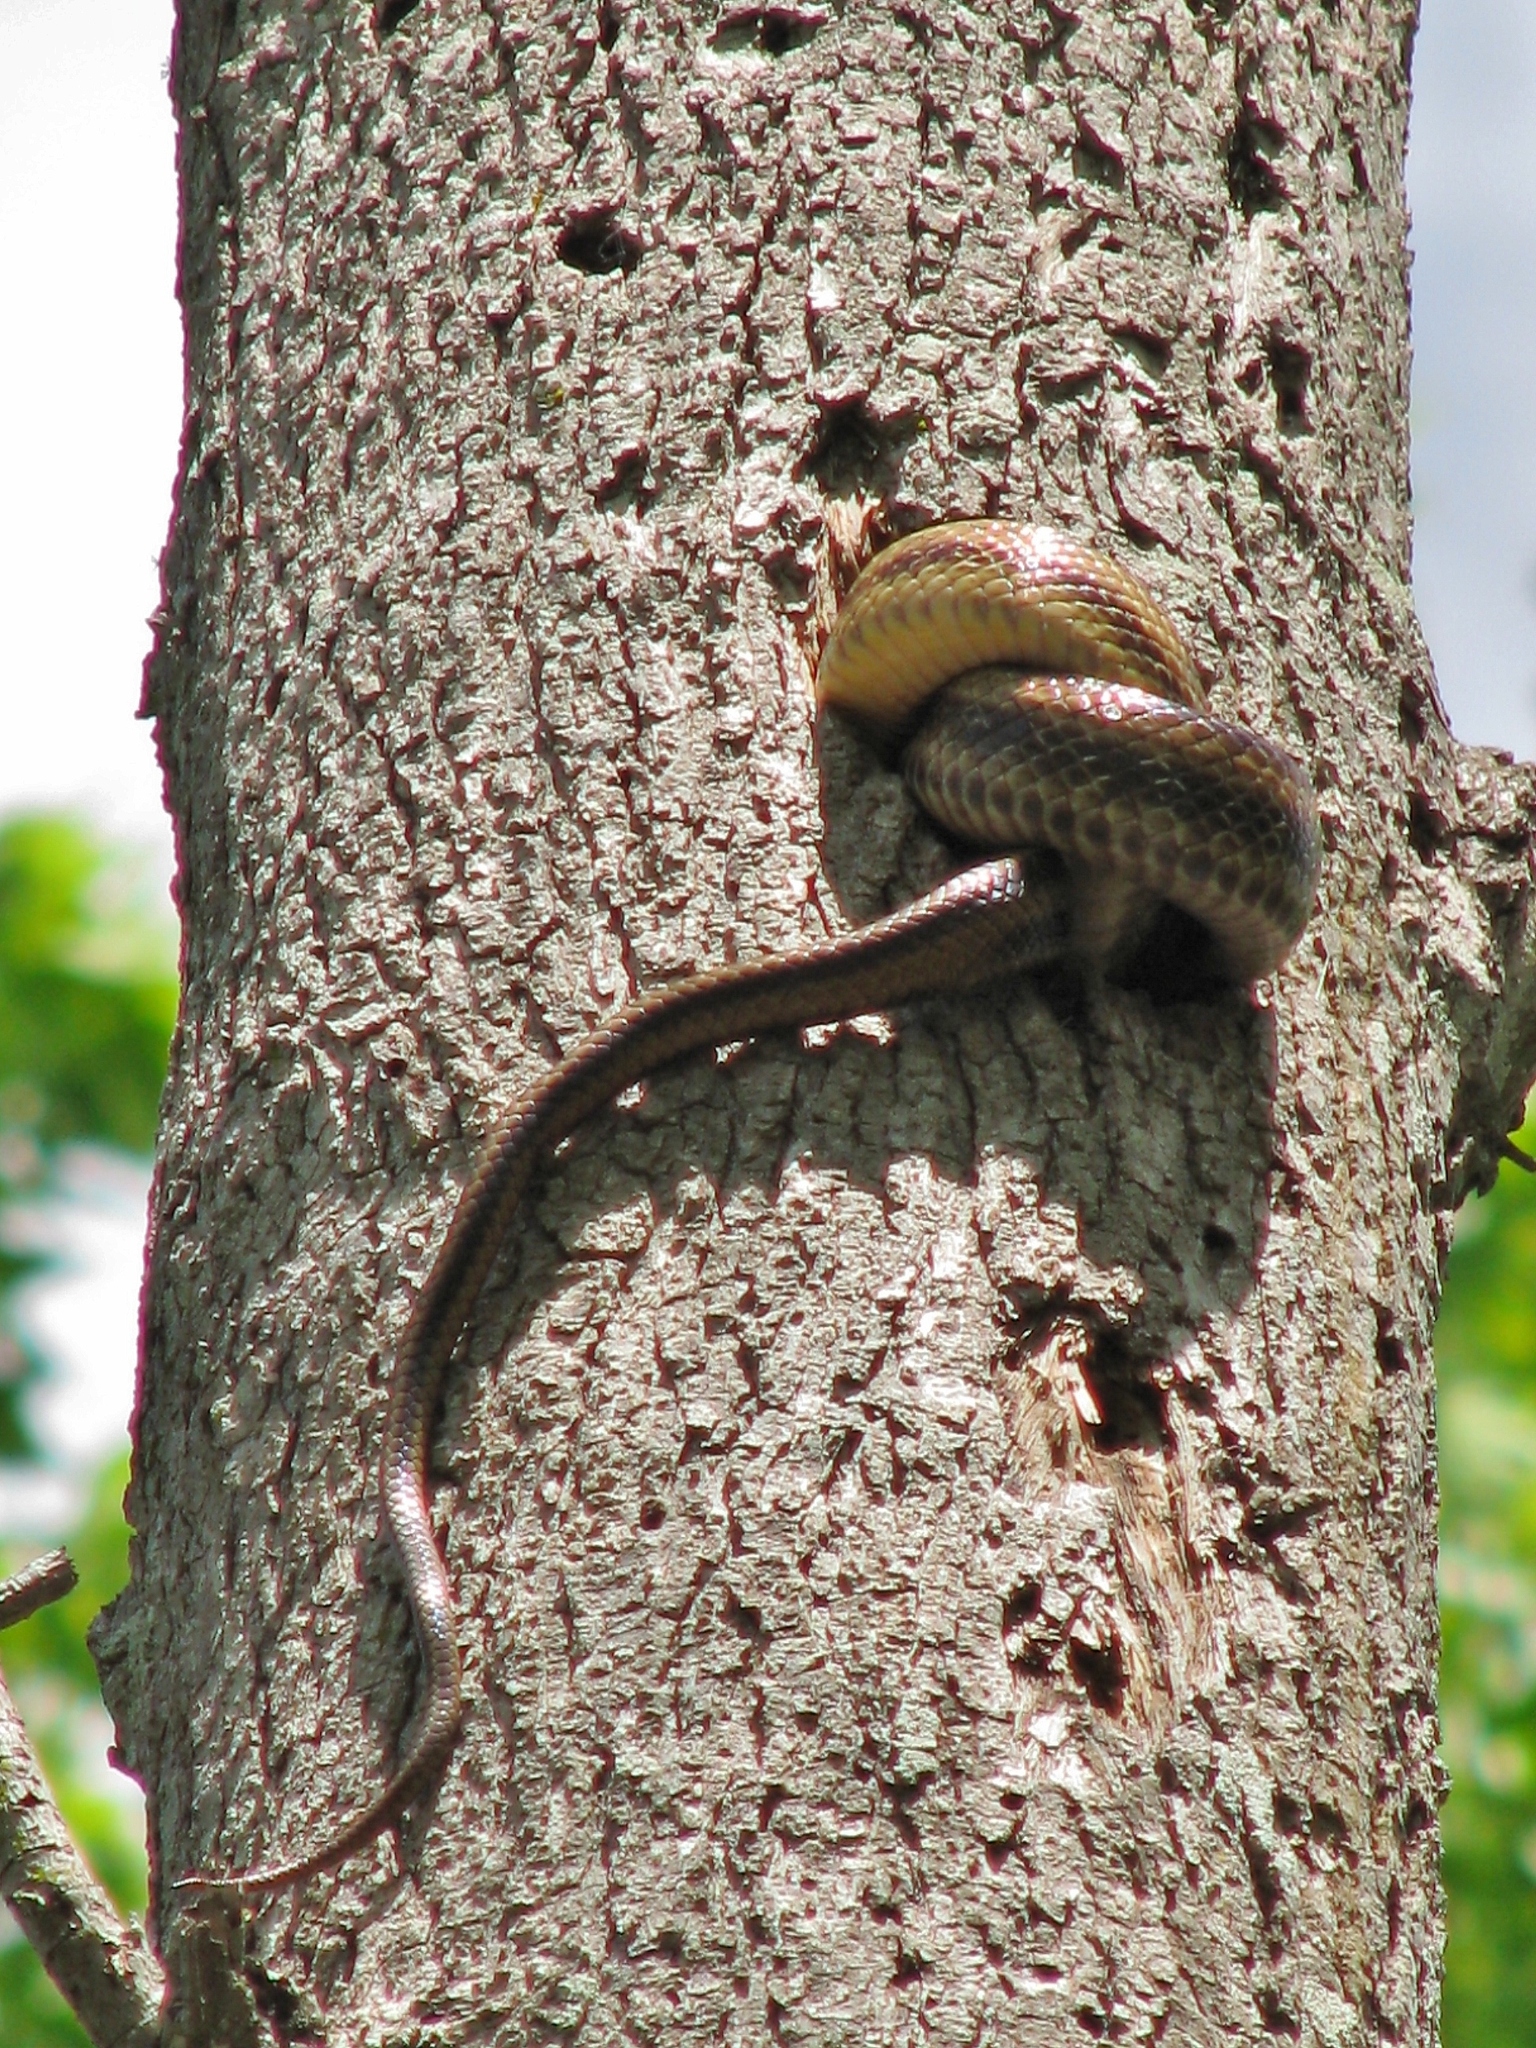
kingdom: Animalia
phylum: Chordata
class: Squamata
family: Colubridae
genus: Pantherophis
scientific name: Pantherophis alleghaniensis
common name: Eastern rat snake
